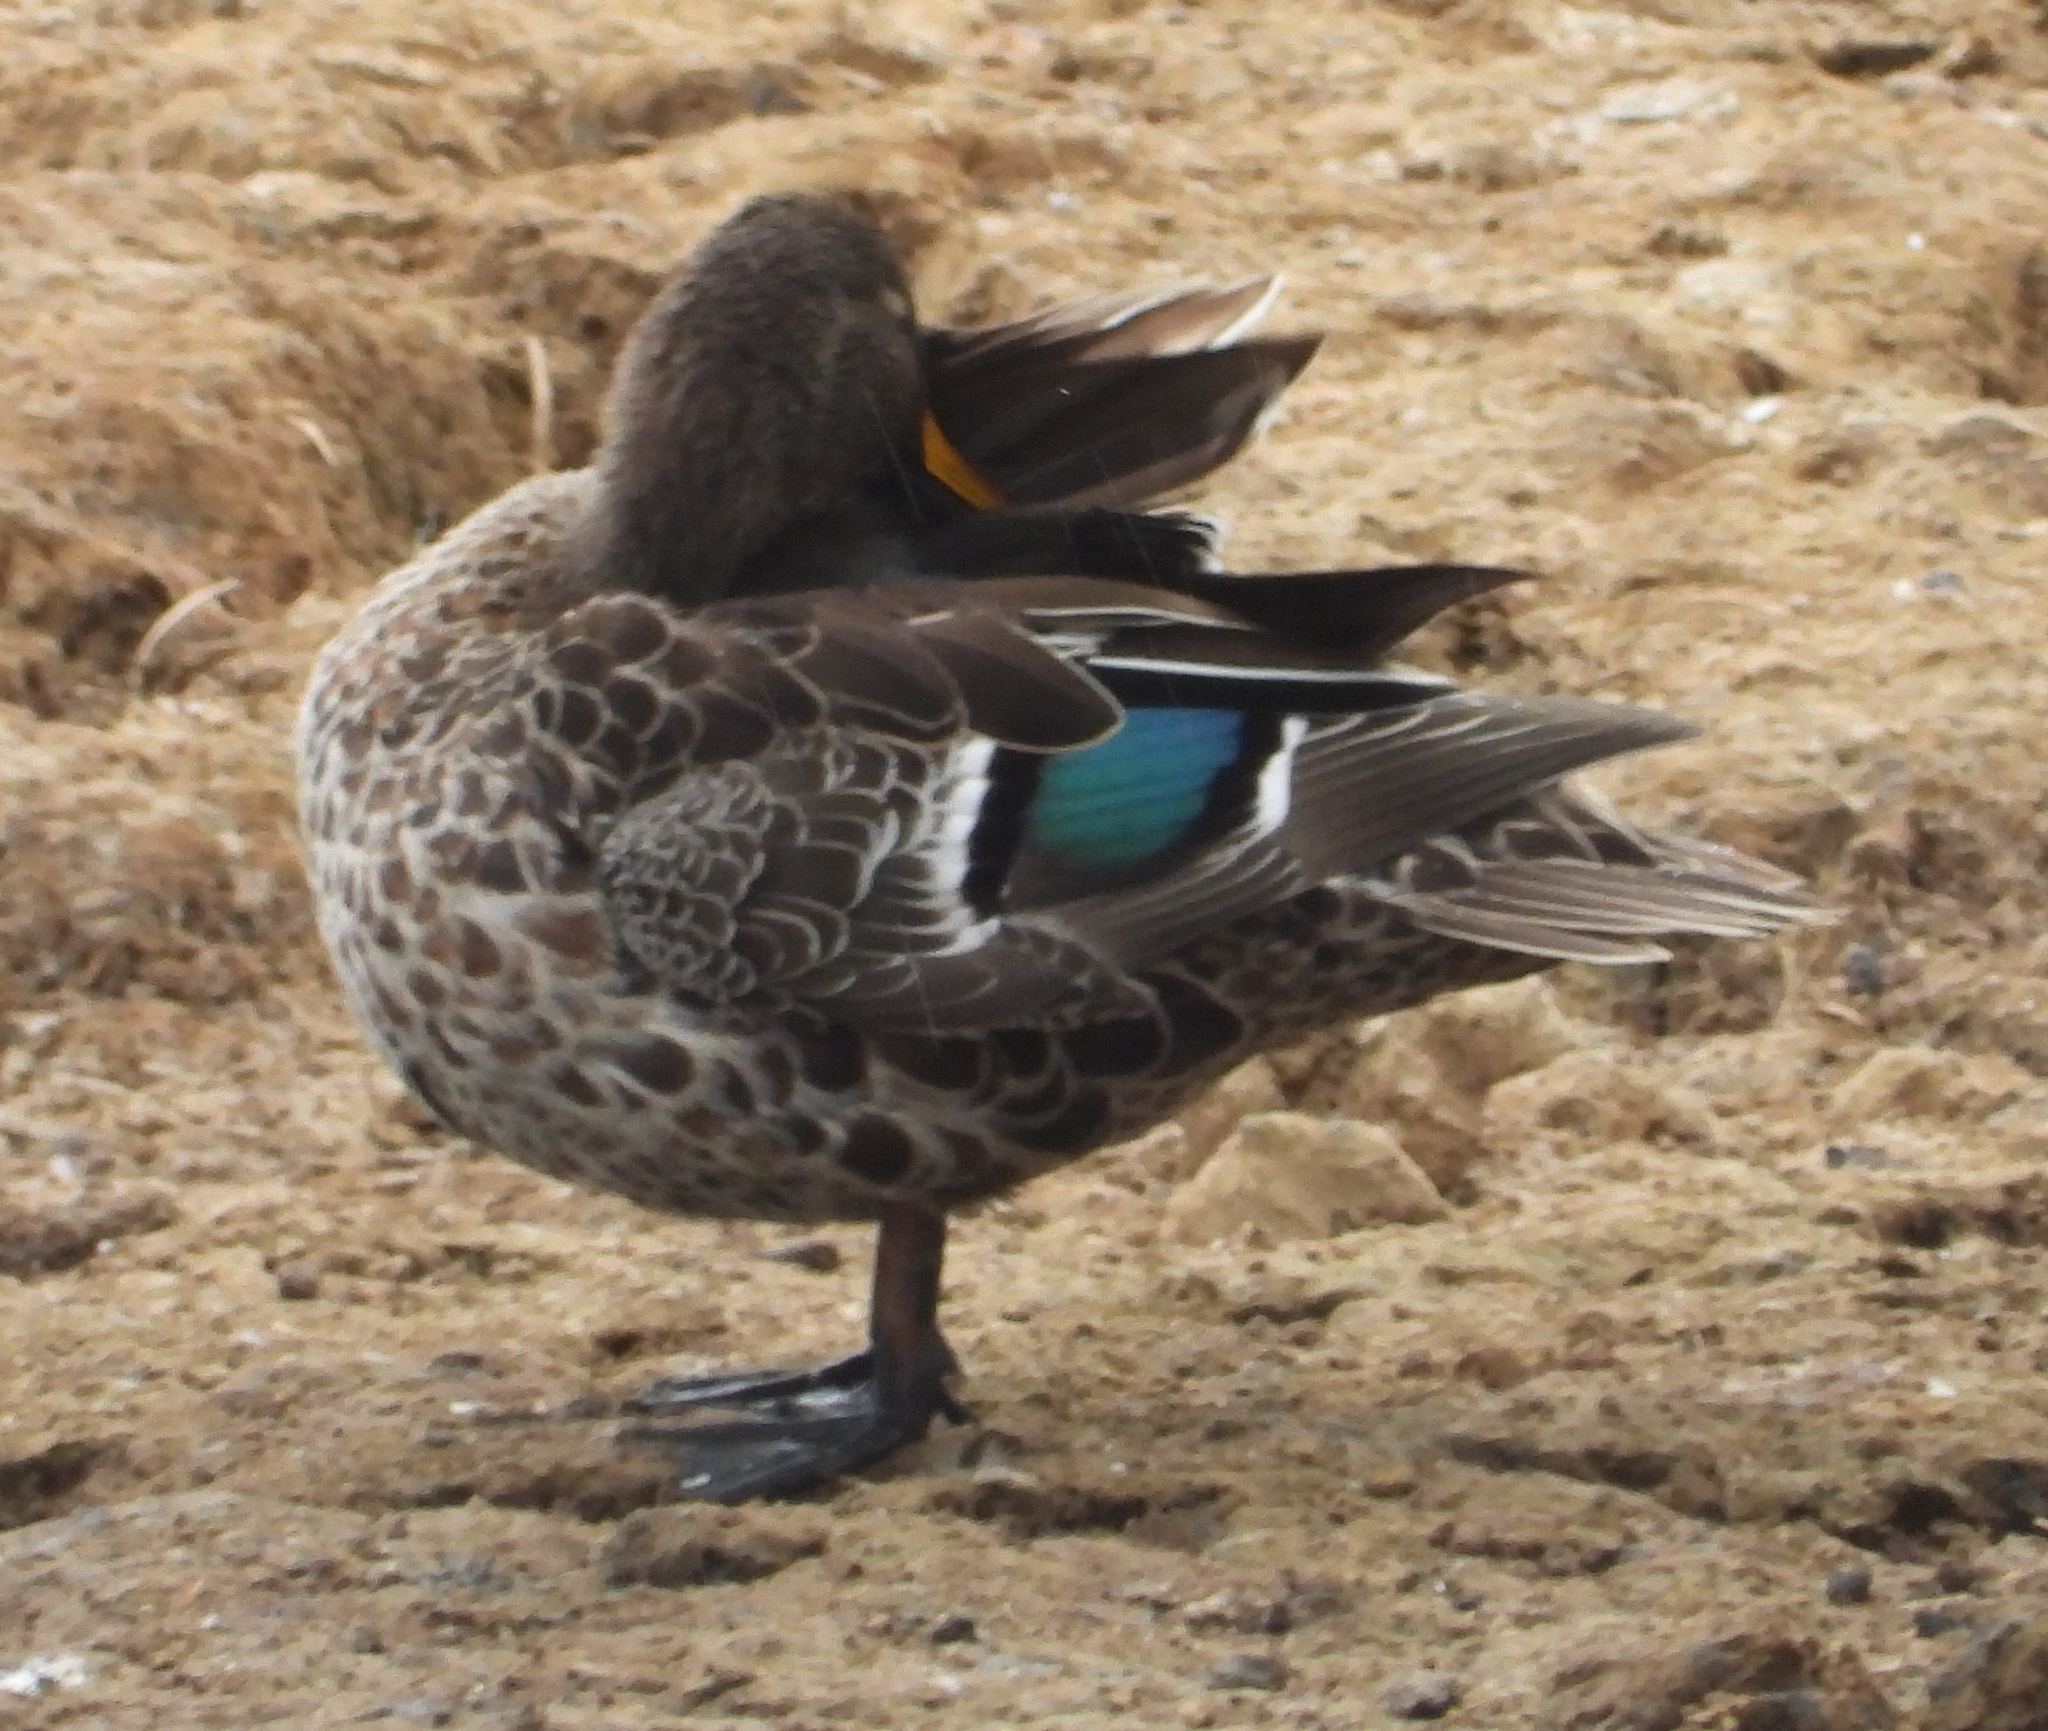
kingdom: Animalia
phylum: Chordata
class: Aves
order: Anseriformes
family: Anatidae
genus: Anas
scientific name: Anas undulata
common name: Yellow-billed duck
